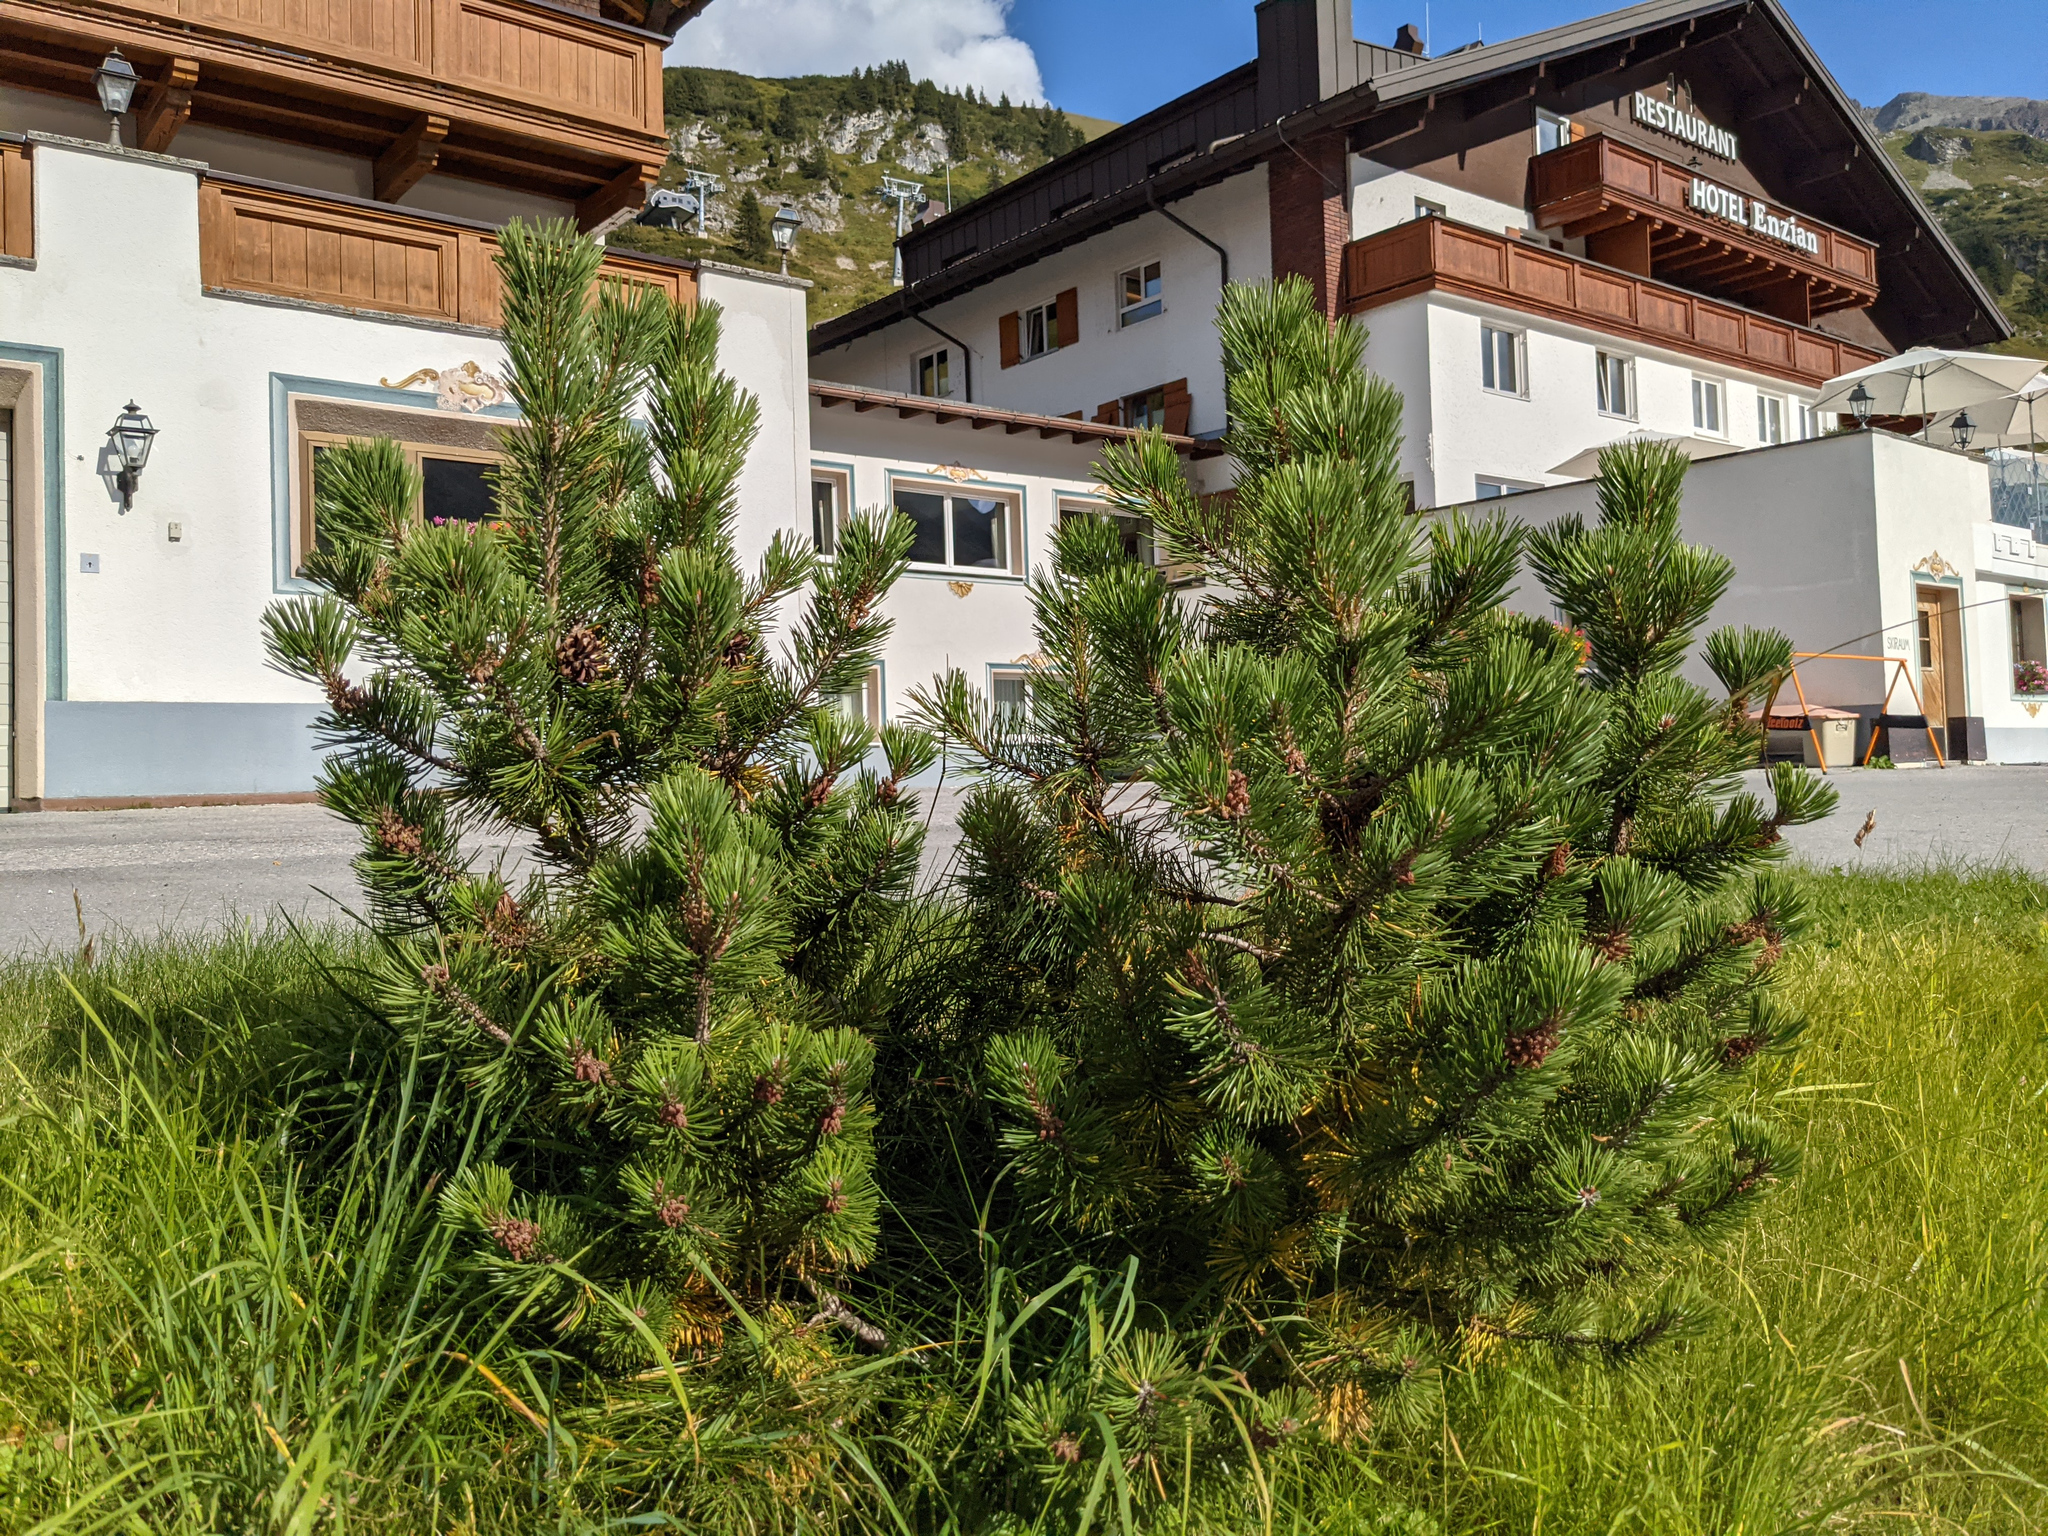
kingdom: Plantae
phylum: Tracheophyta
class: Pinopsida
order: Pinales
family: Pinaceae
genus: Pinus
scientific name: Pinus mugo
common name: Mugo pine
